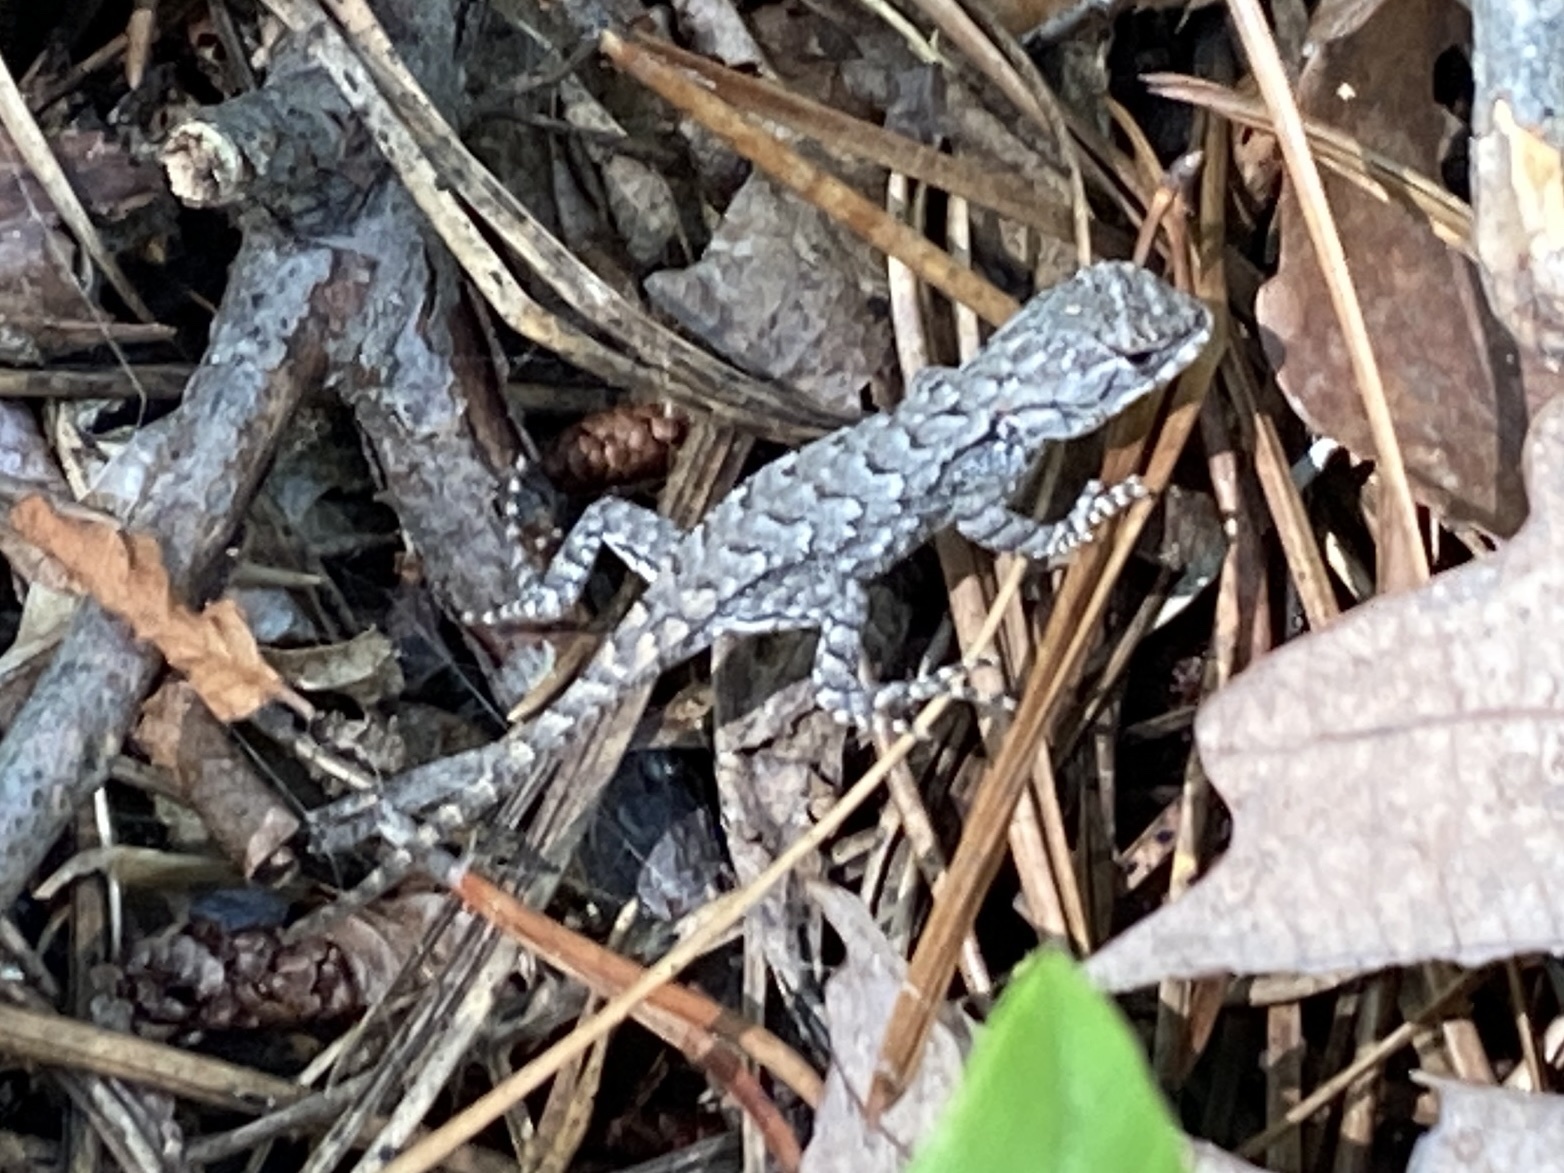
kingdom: Animalia
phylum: Chordata
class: Squamata
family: Phrynosomatidae
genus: Sceloporus
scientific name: Sceloporus undulatus
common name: Eastern fence lizard
